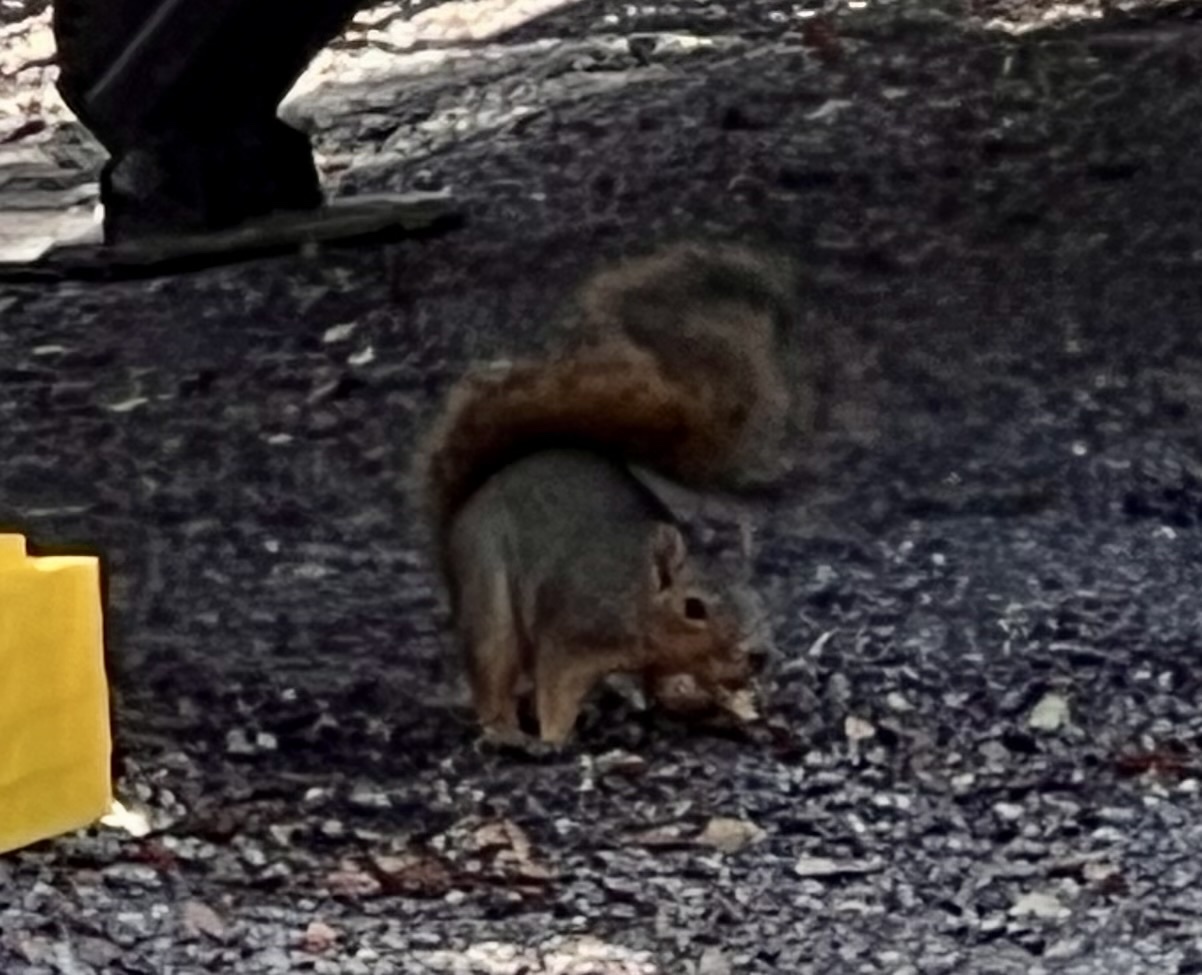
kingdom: Animalia
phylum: Chordata
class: Mammalia
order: Rodentia
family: Sciuridae
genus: Sciurus
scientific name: Sciurus niger
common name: Fox squirrel
